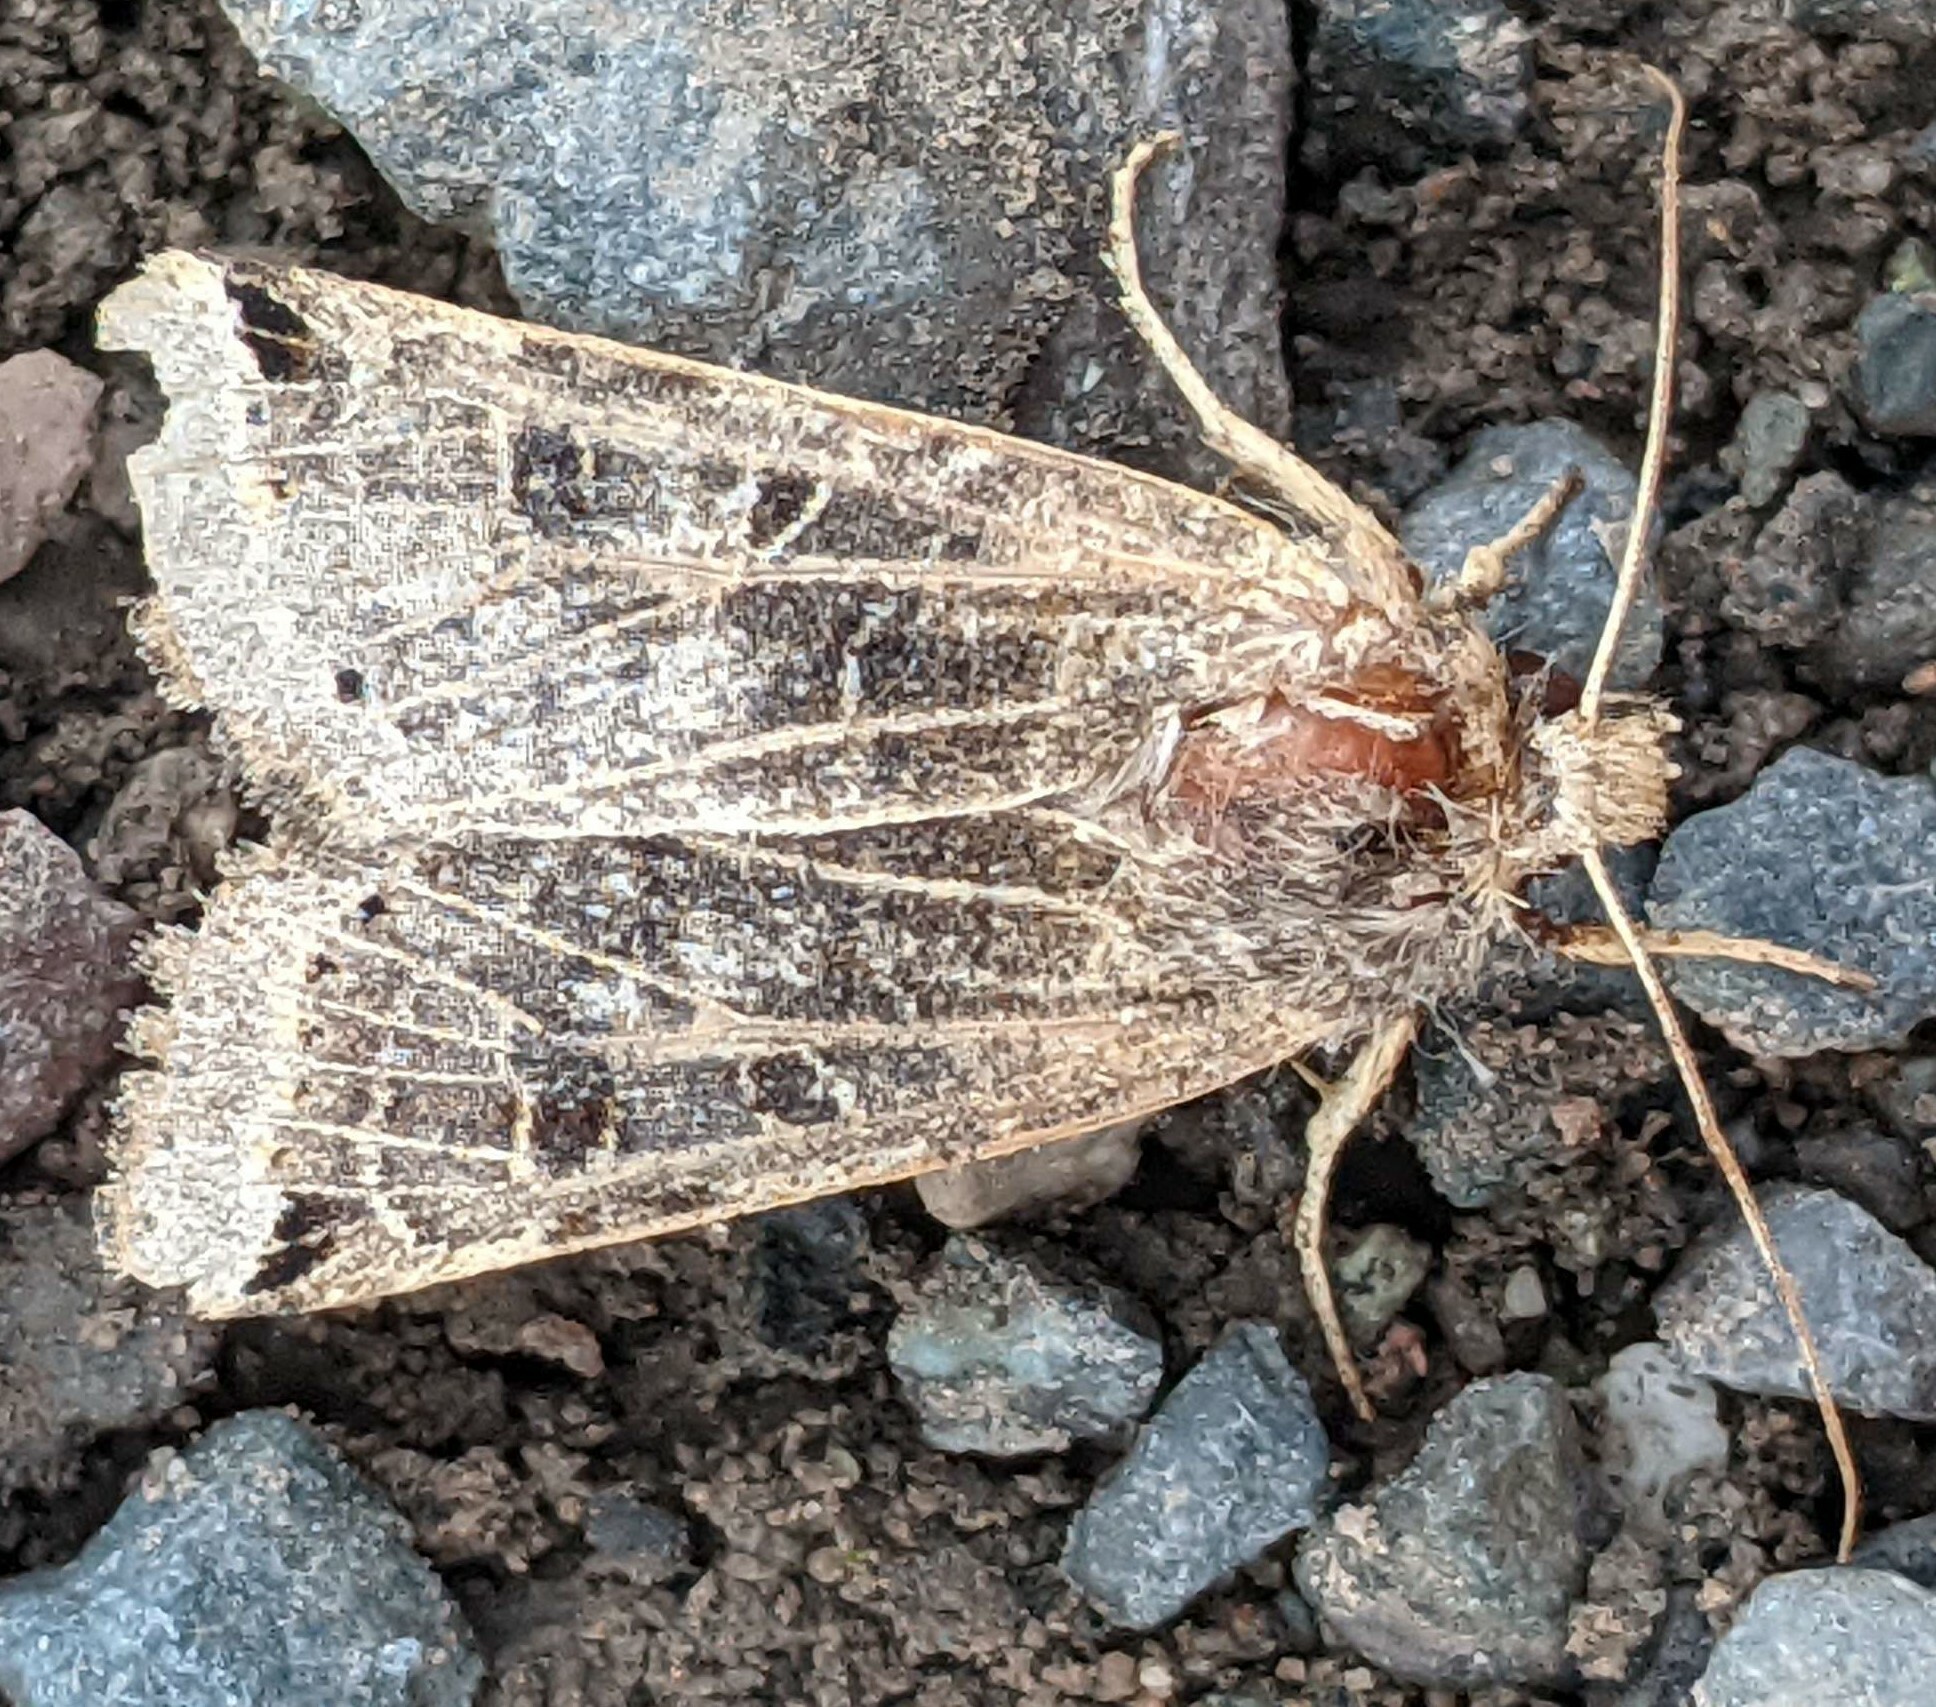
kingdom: Animalia
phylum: Arthropoda
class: Insecta
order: Lepidoptera
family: Noctuidae
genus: Agrochola
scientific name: Agrochola lunosa
